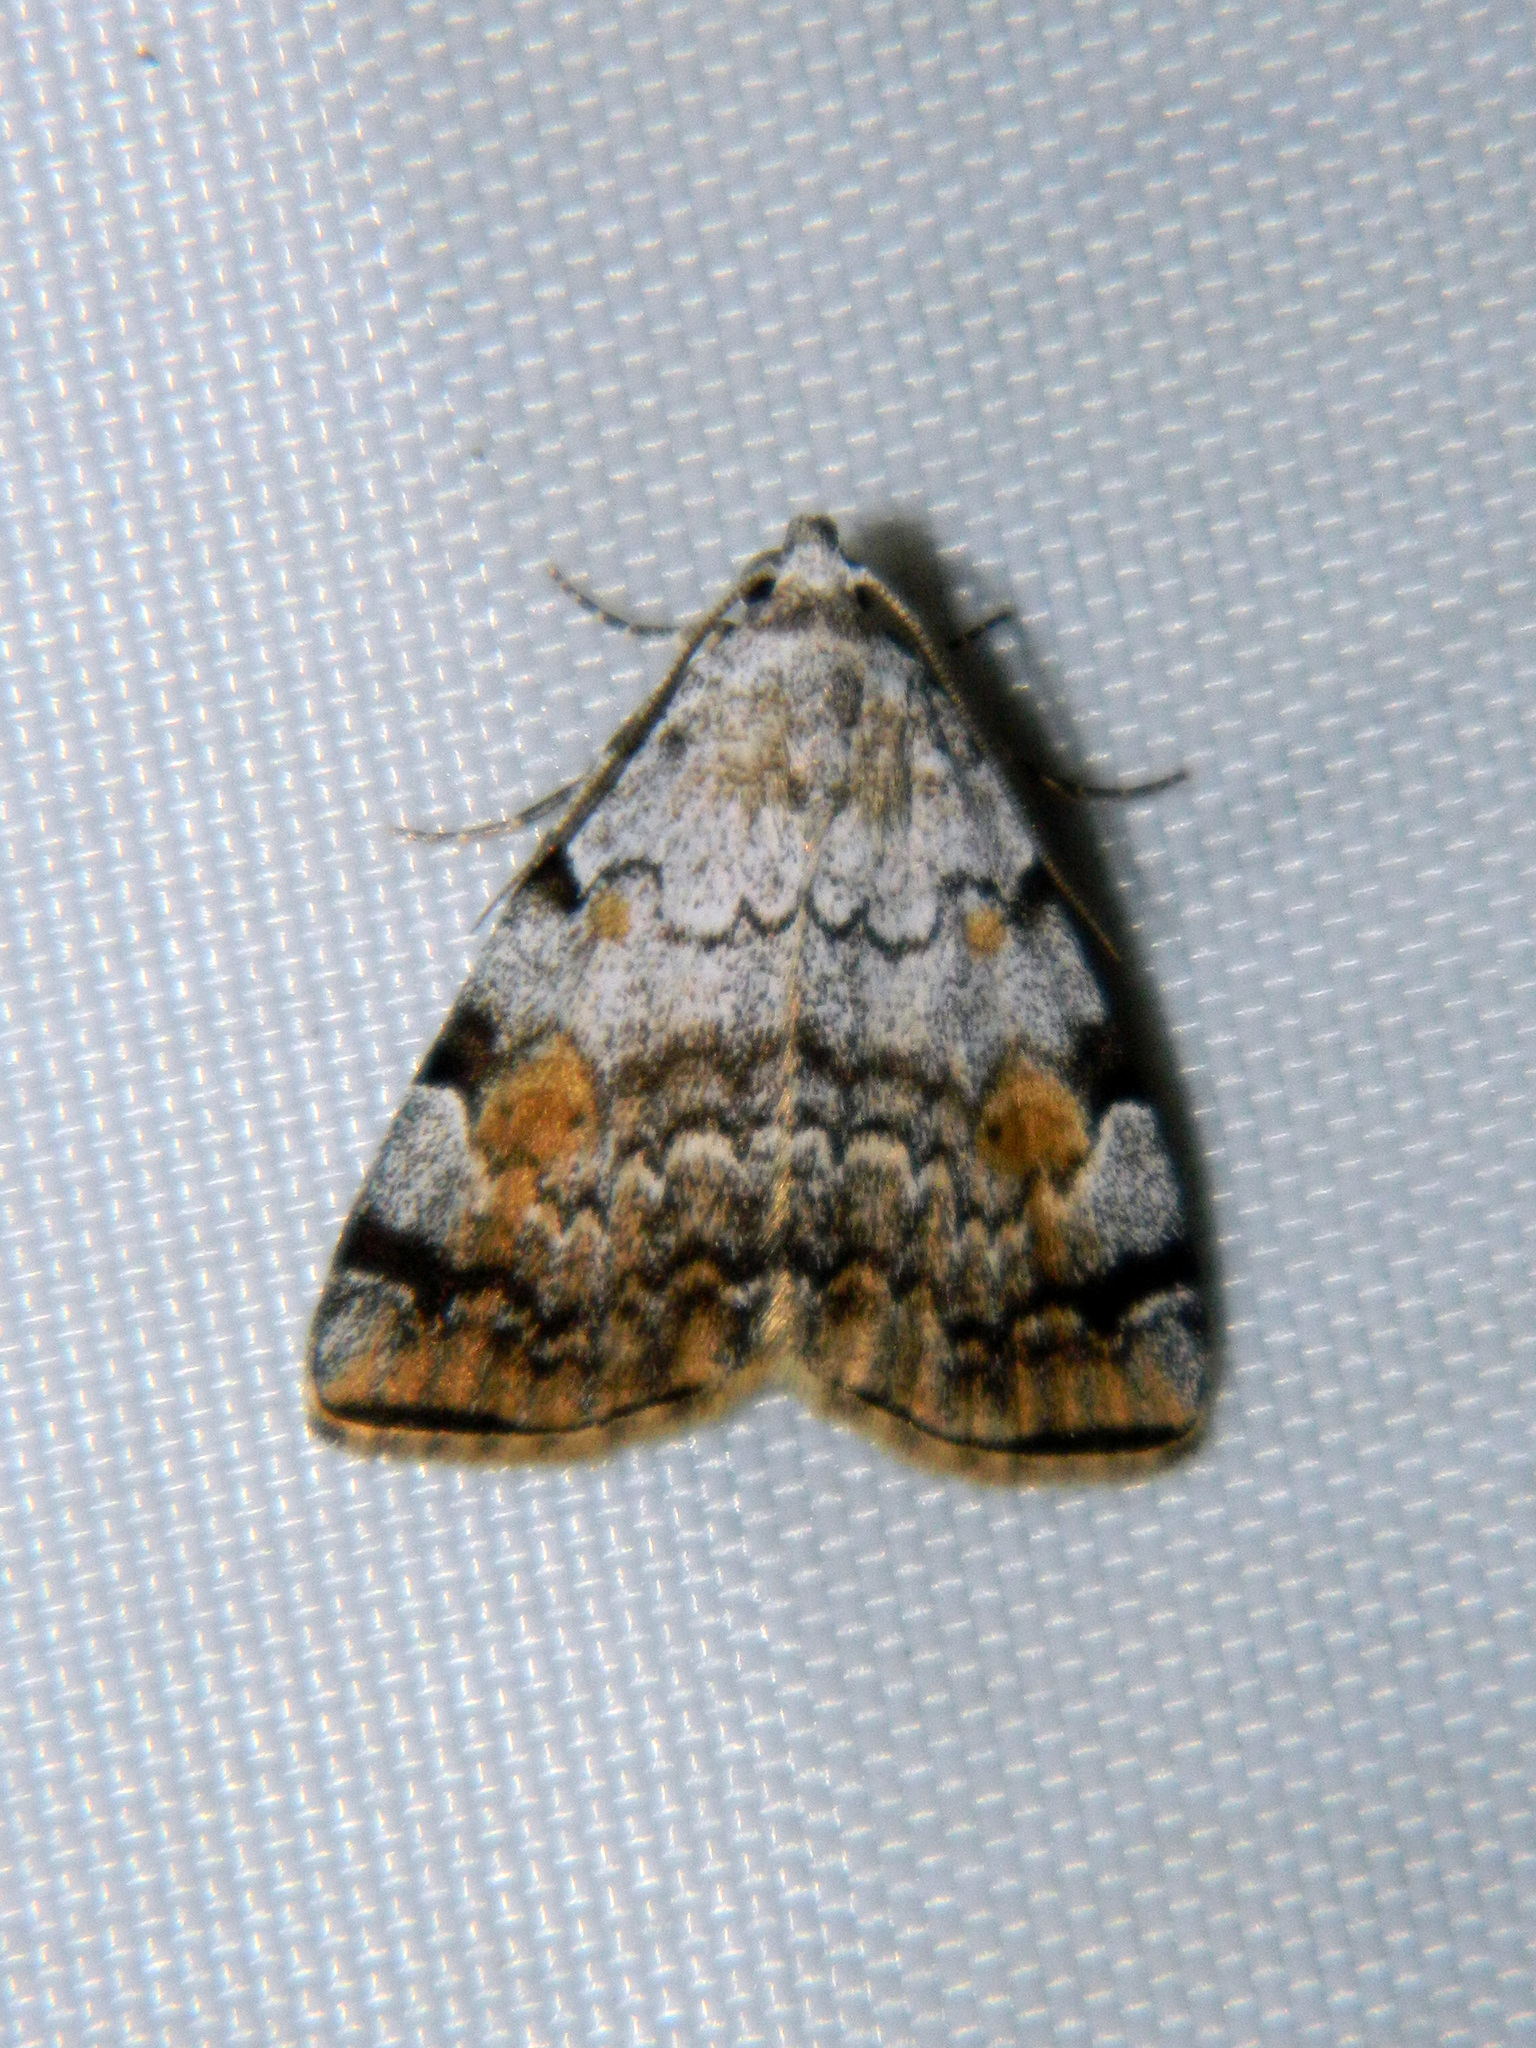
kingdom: Animalia
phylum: Arthropoda
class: Insecta
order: Lepidoptera
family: Erebidae
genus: Idia
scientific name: Idia americalis
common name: American idia moth
